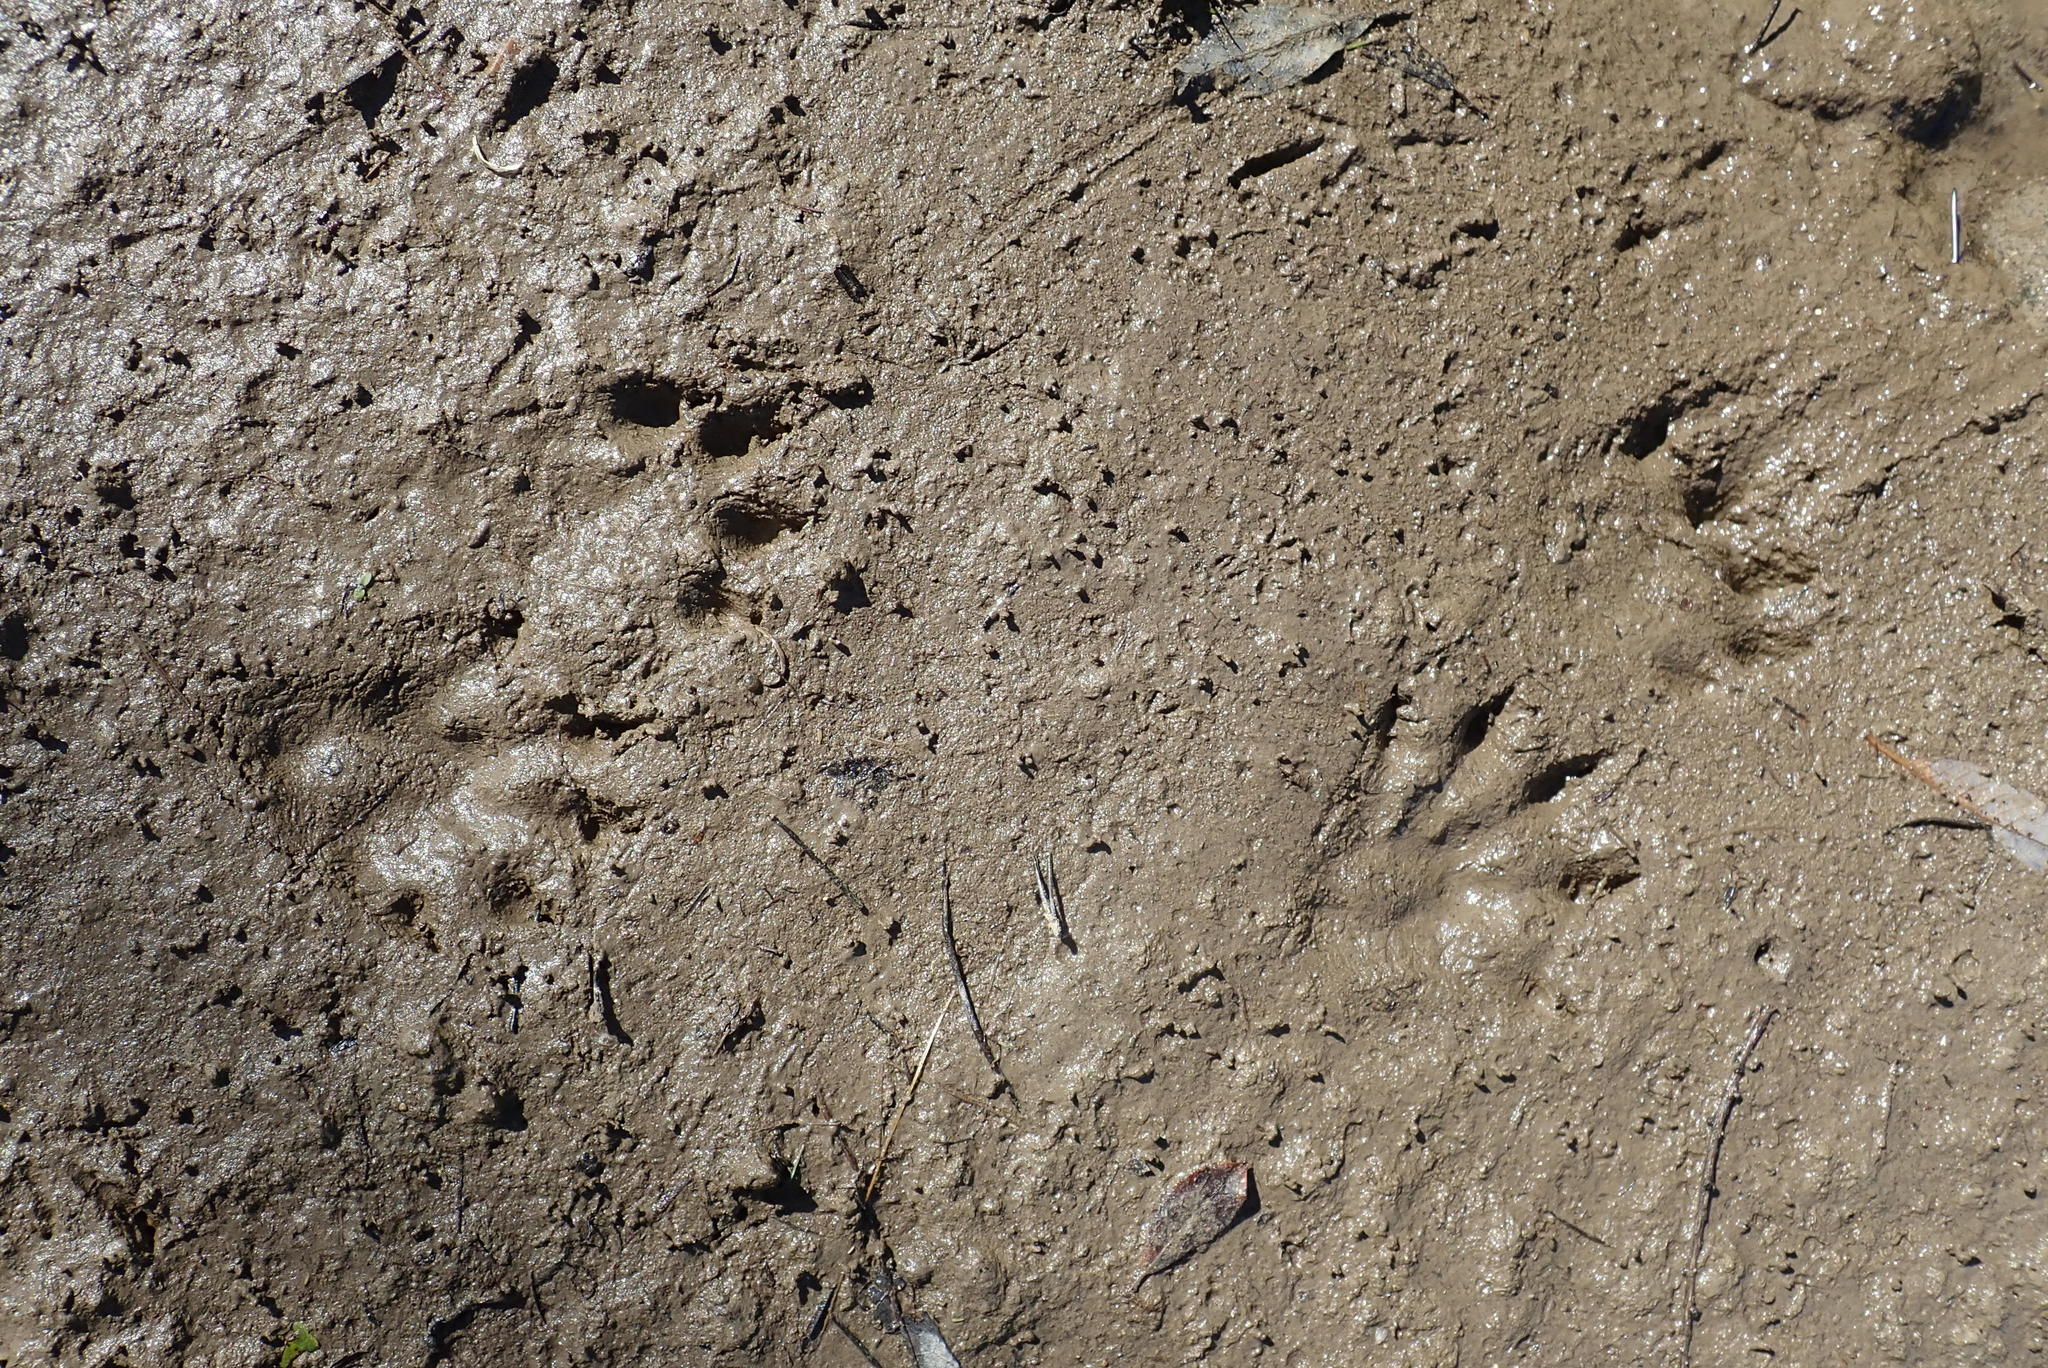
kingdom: Animalia
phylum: Chordata
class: Mammalia
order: Rodentia
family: Cricetidae
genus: Ondatra
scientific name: Ondatra zibethicus
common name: Muskrat
